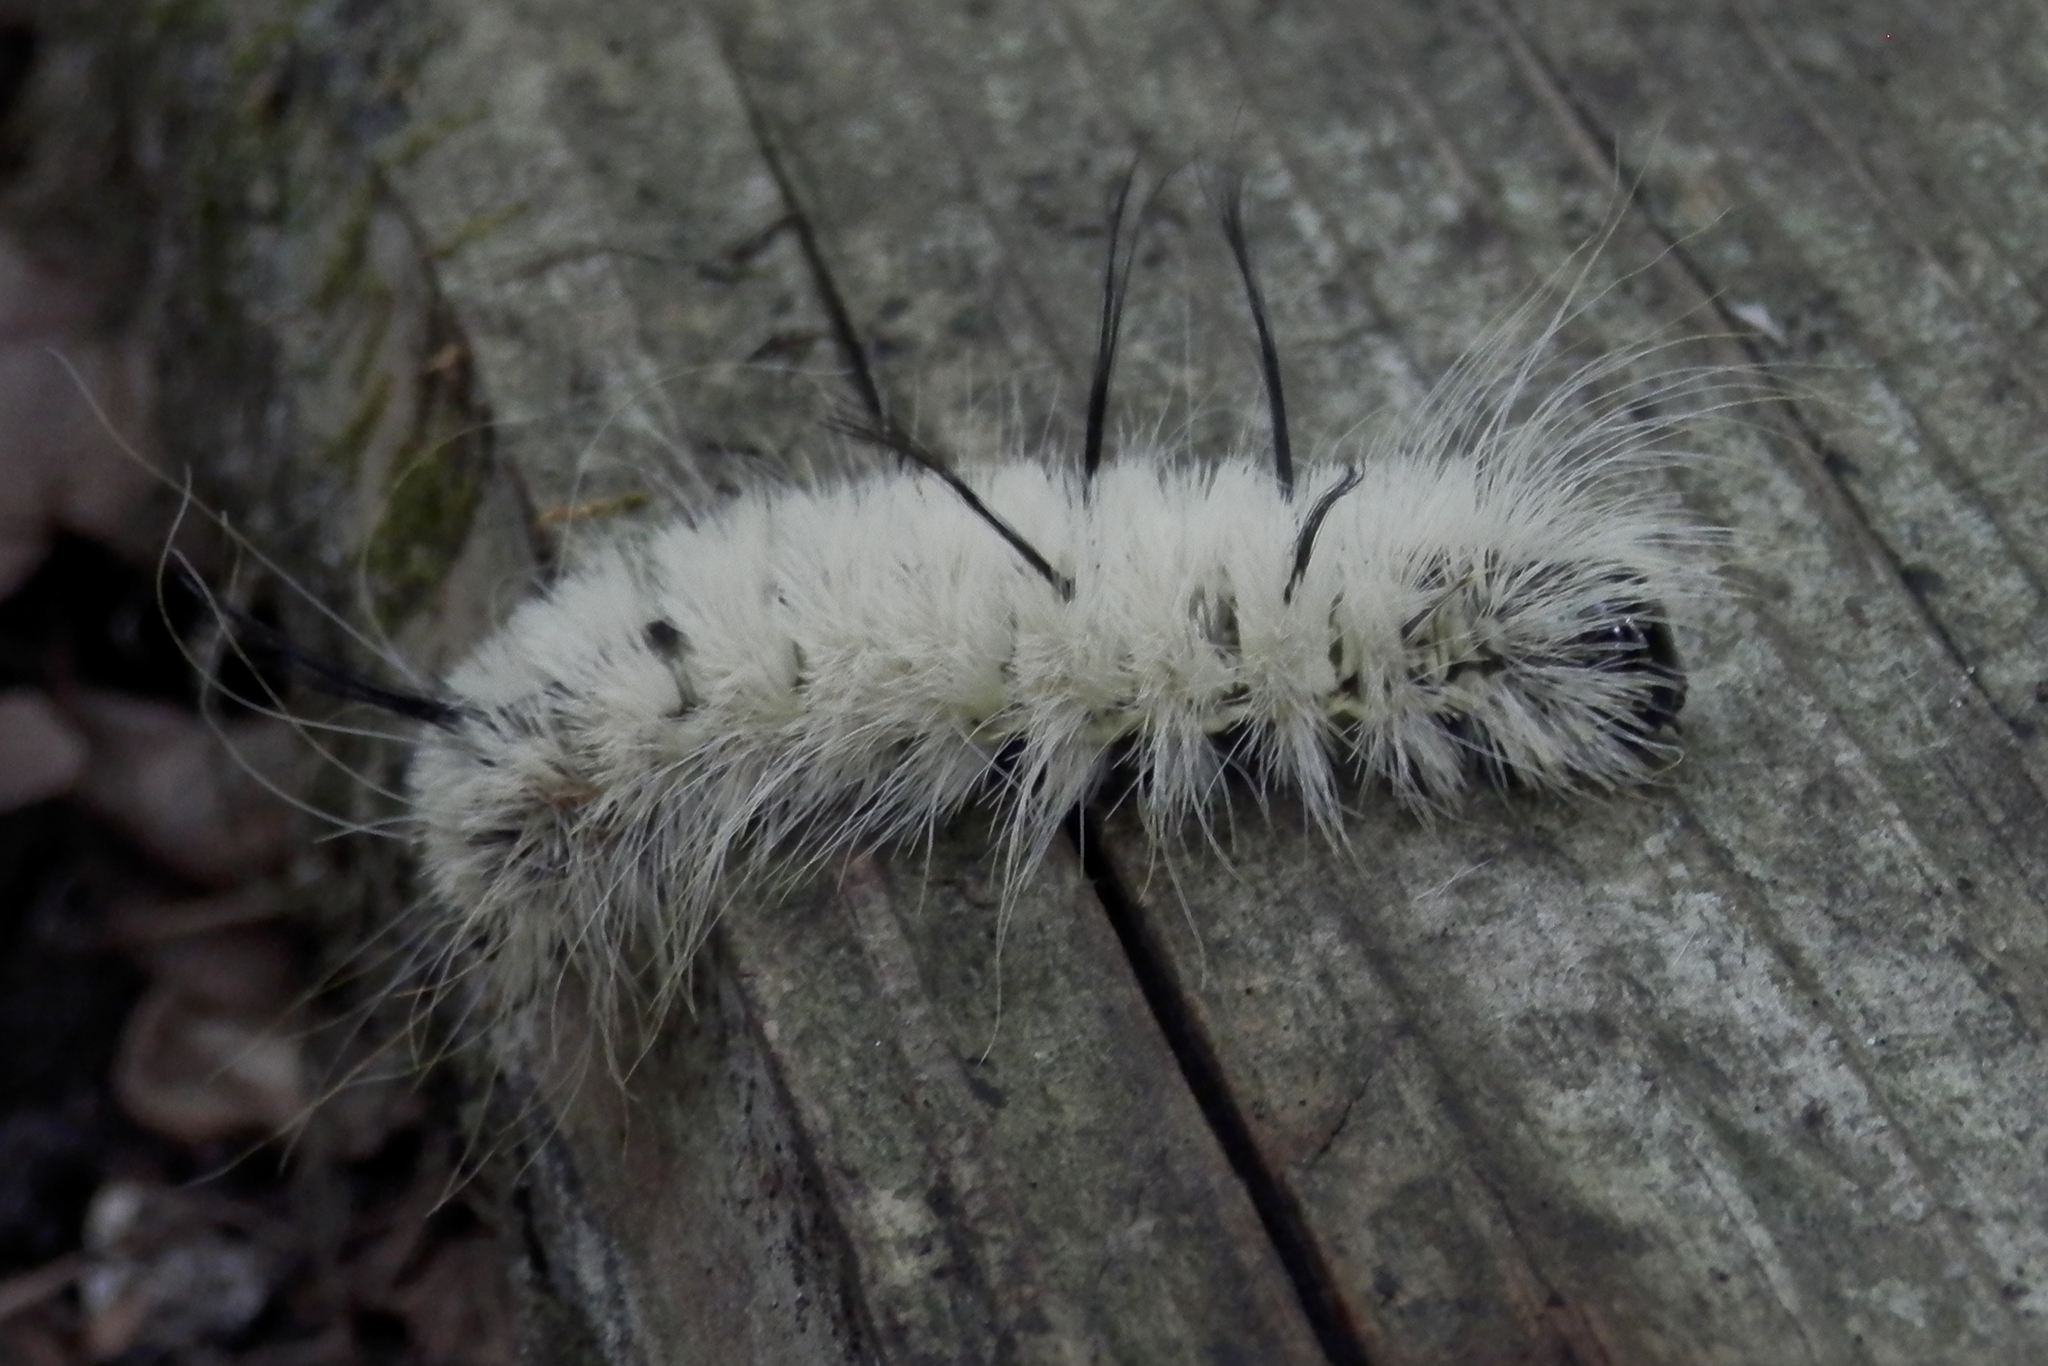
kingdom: Animalia
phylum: Arthropoda
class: Insecta
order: Lepidoptera
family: Noctuidae
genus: Acronicta
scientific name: Acronicta americana
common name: American dagger
